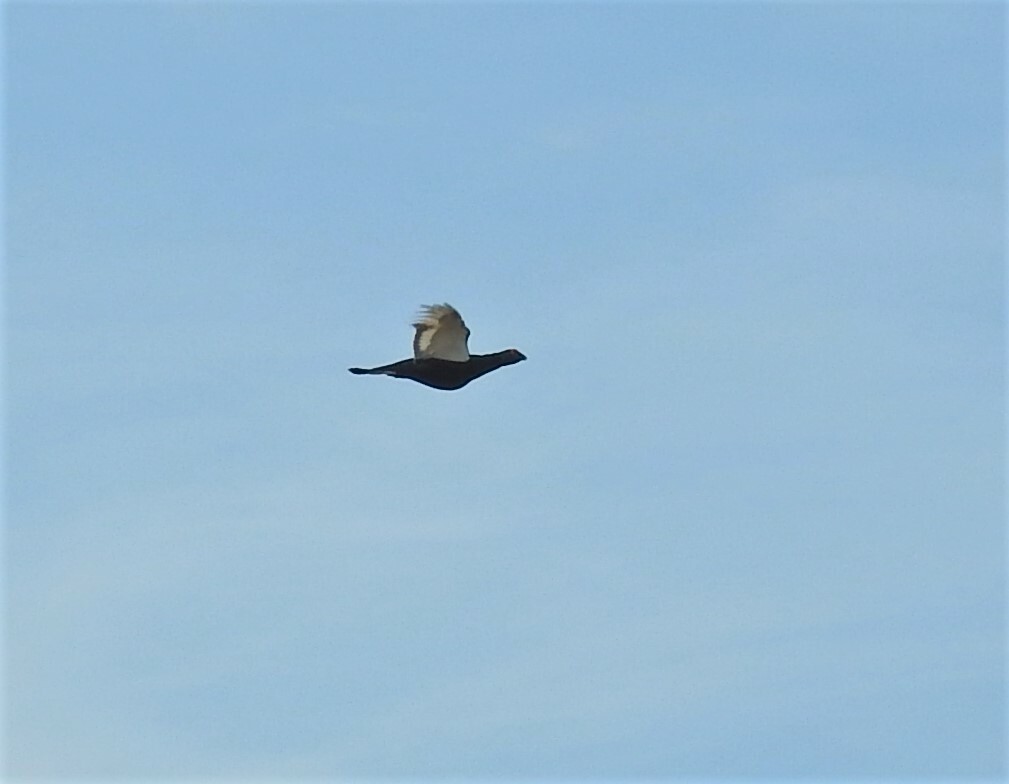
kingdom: Animalia
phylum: Chordata
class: Aves
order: Galliformes
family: Phasianidae
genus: Lyrurus
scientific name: Lyrurus tetrix
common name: Black grouse
